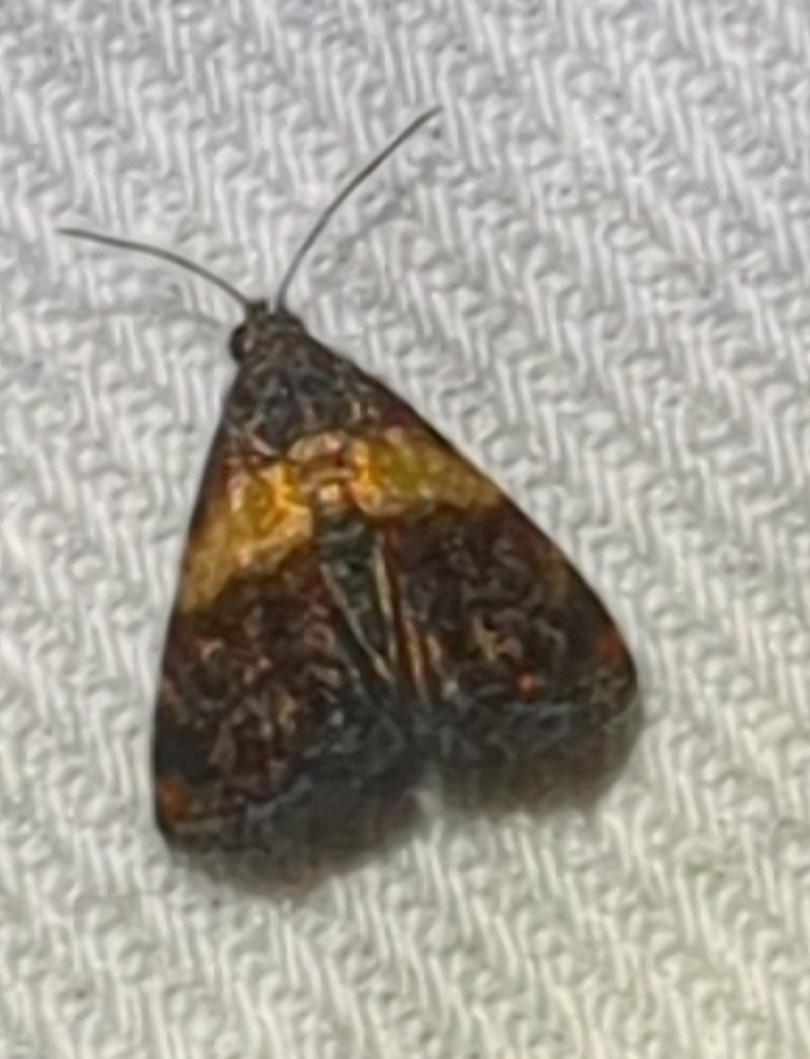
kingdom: Animalia
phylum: Arthropoda
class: Insecta
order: Lepidoptera
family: Noctuidae
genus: Tripudia
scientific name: Tripudia flavofasciata
